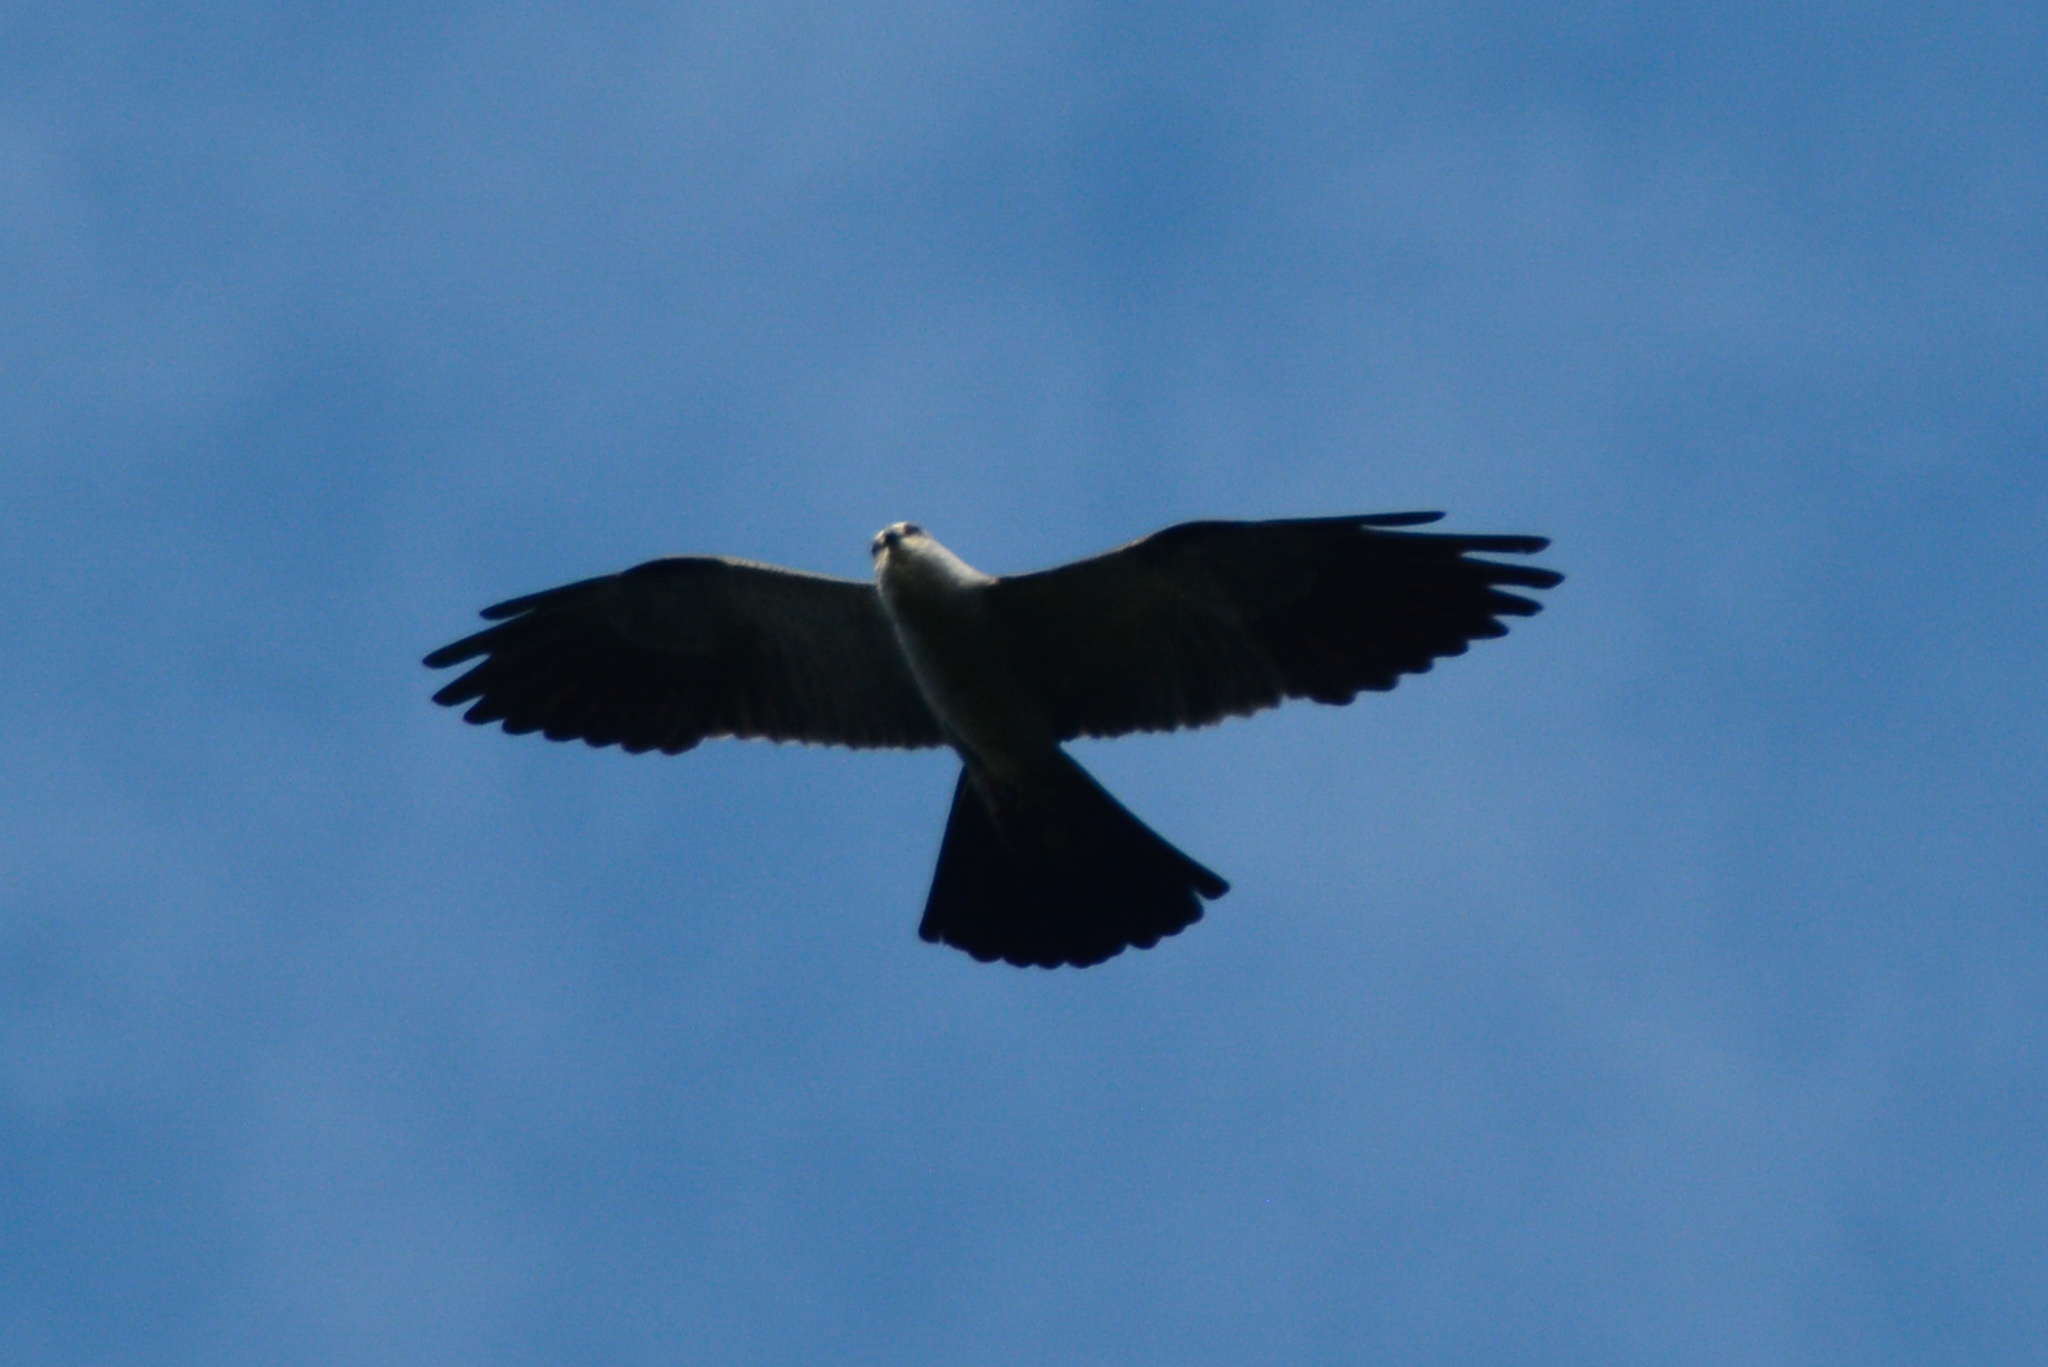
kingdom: Animalia
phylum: Chordata
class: Aves
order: Accipitriformes
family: Accipitridae
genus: Ictinia
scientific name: Ictinia mississippiensis
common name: Mississippi kite
